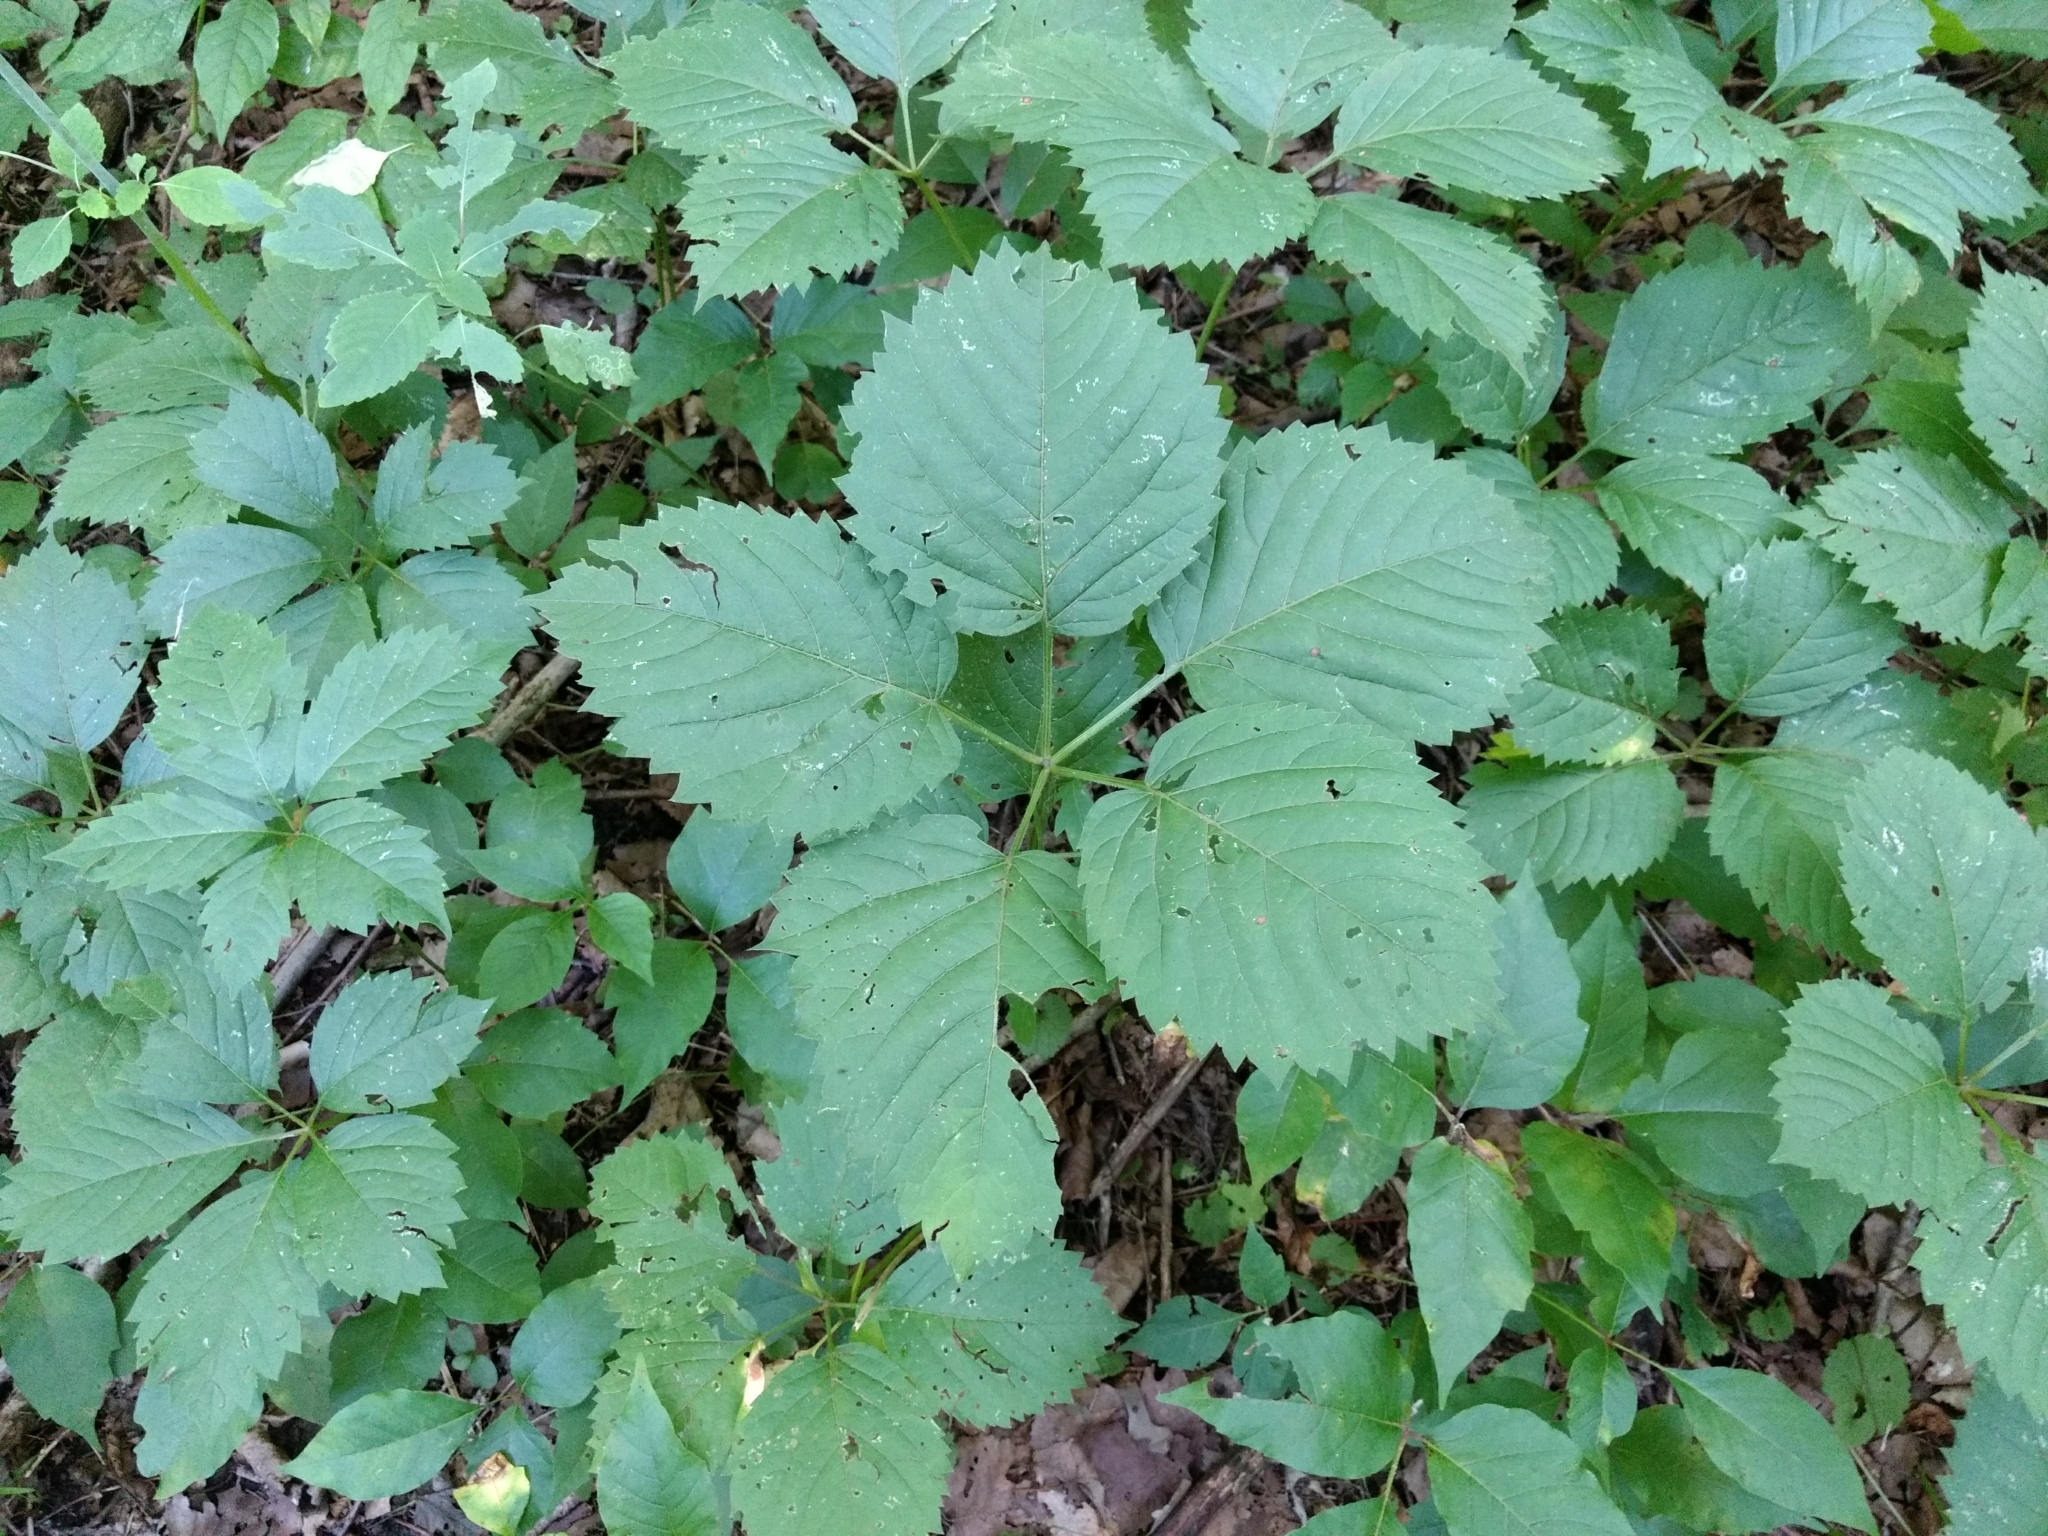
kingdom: Plantae
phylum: Tracheophyta
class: Magnoliopsida
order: Vitales
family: Vitaceae
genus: Parthenocissus
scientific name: Parthenocissus inserta
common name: False virginia-creeper
